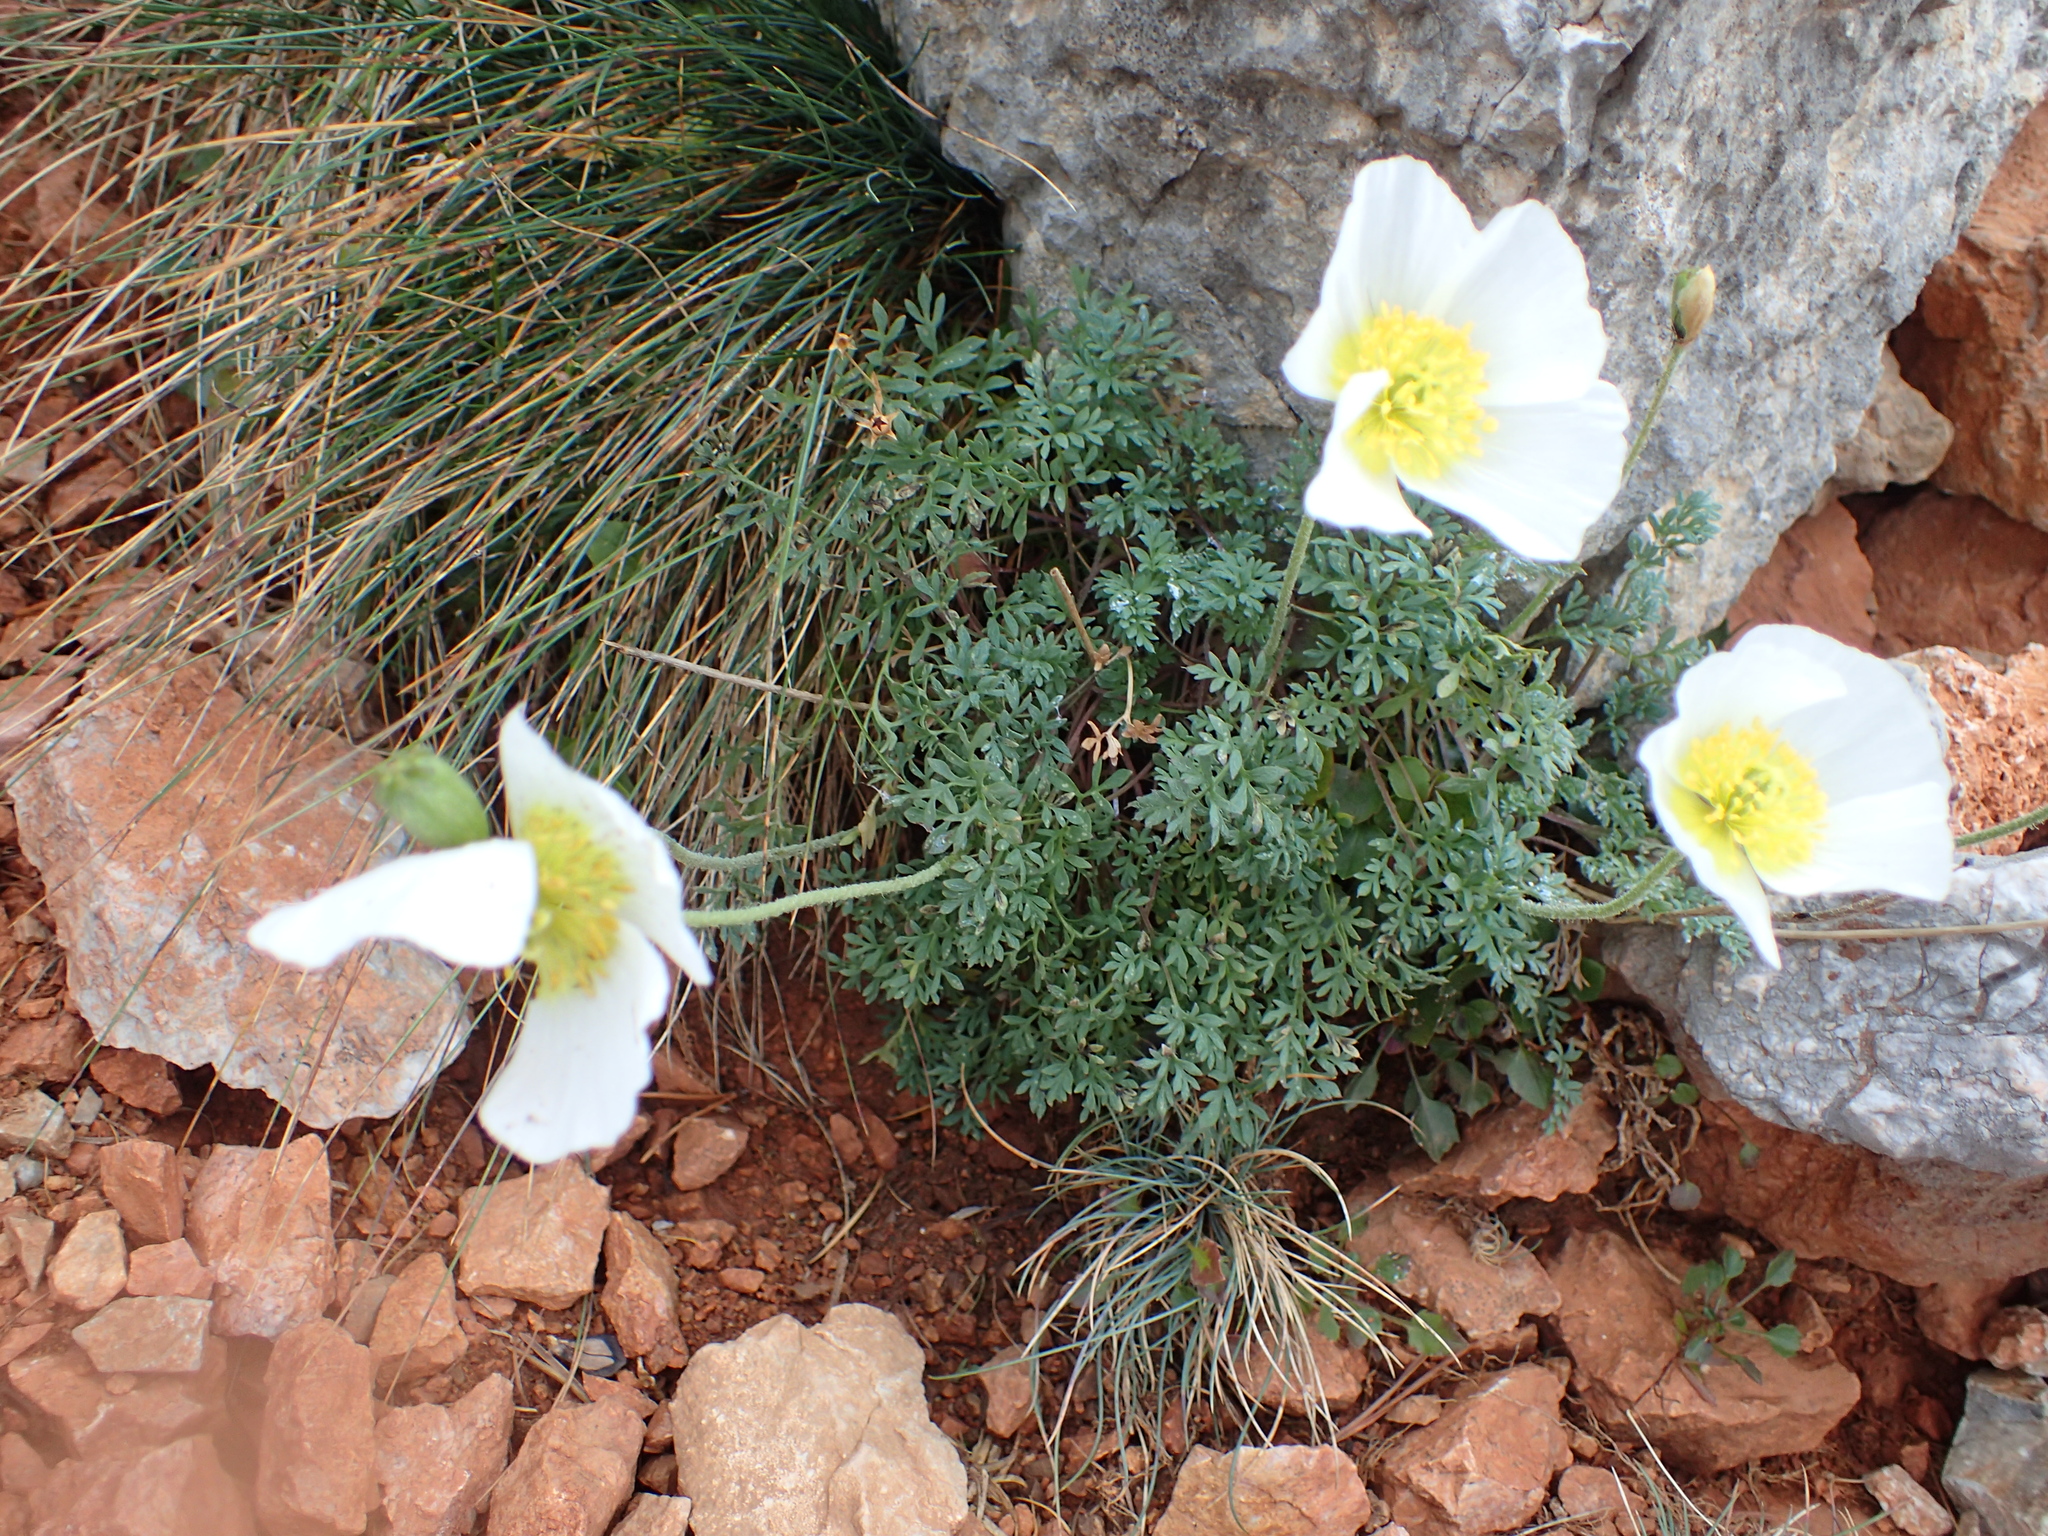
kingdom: Plantae
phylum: Tracheophyta
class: Magnoliopsida
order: Ranunculales
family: Papaveraceae
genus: Papaver
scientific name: Papaver alpinum
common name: Austrian poppy
